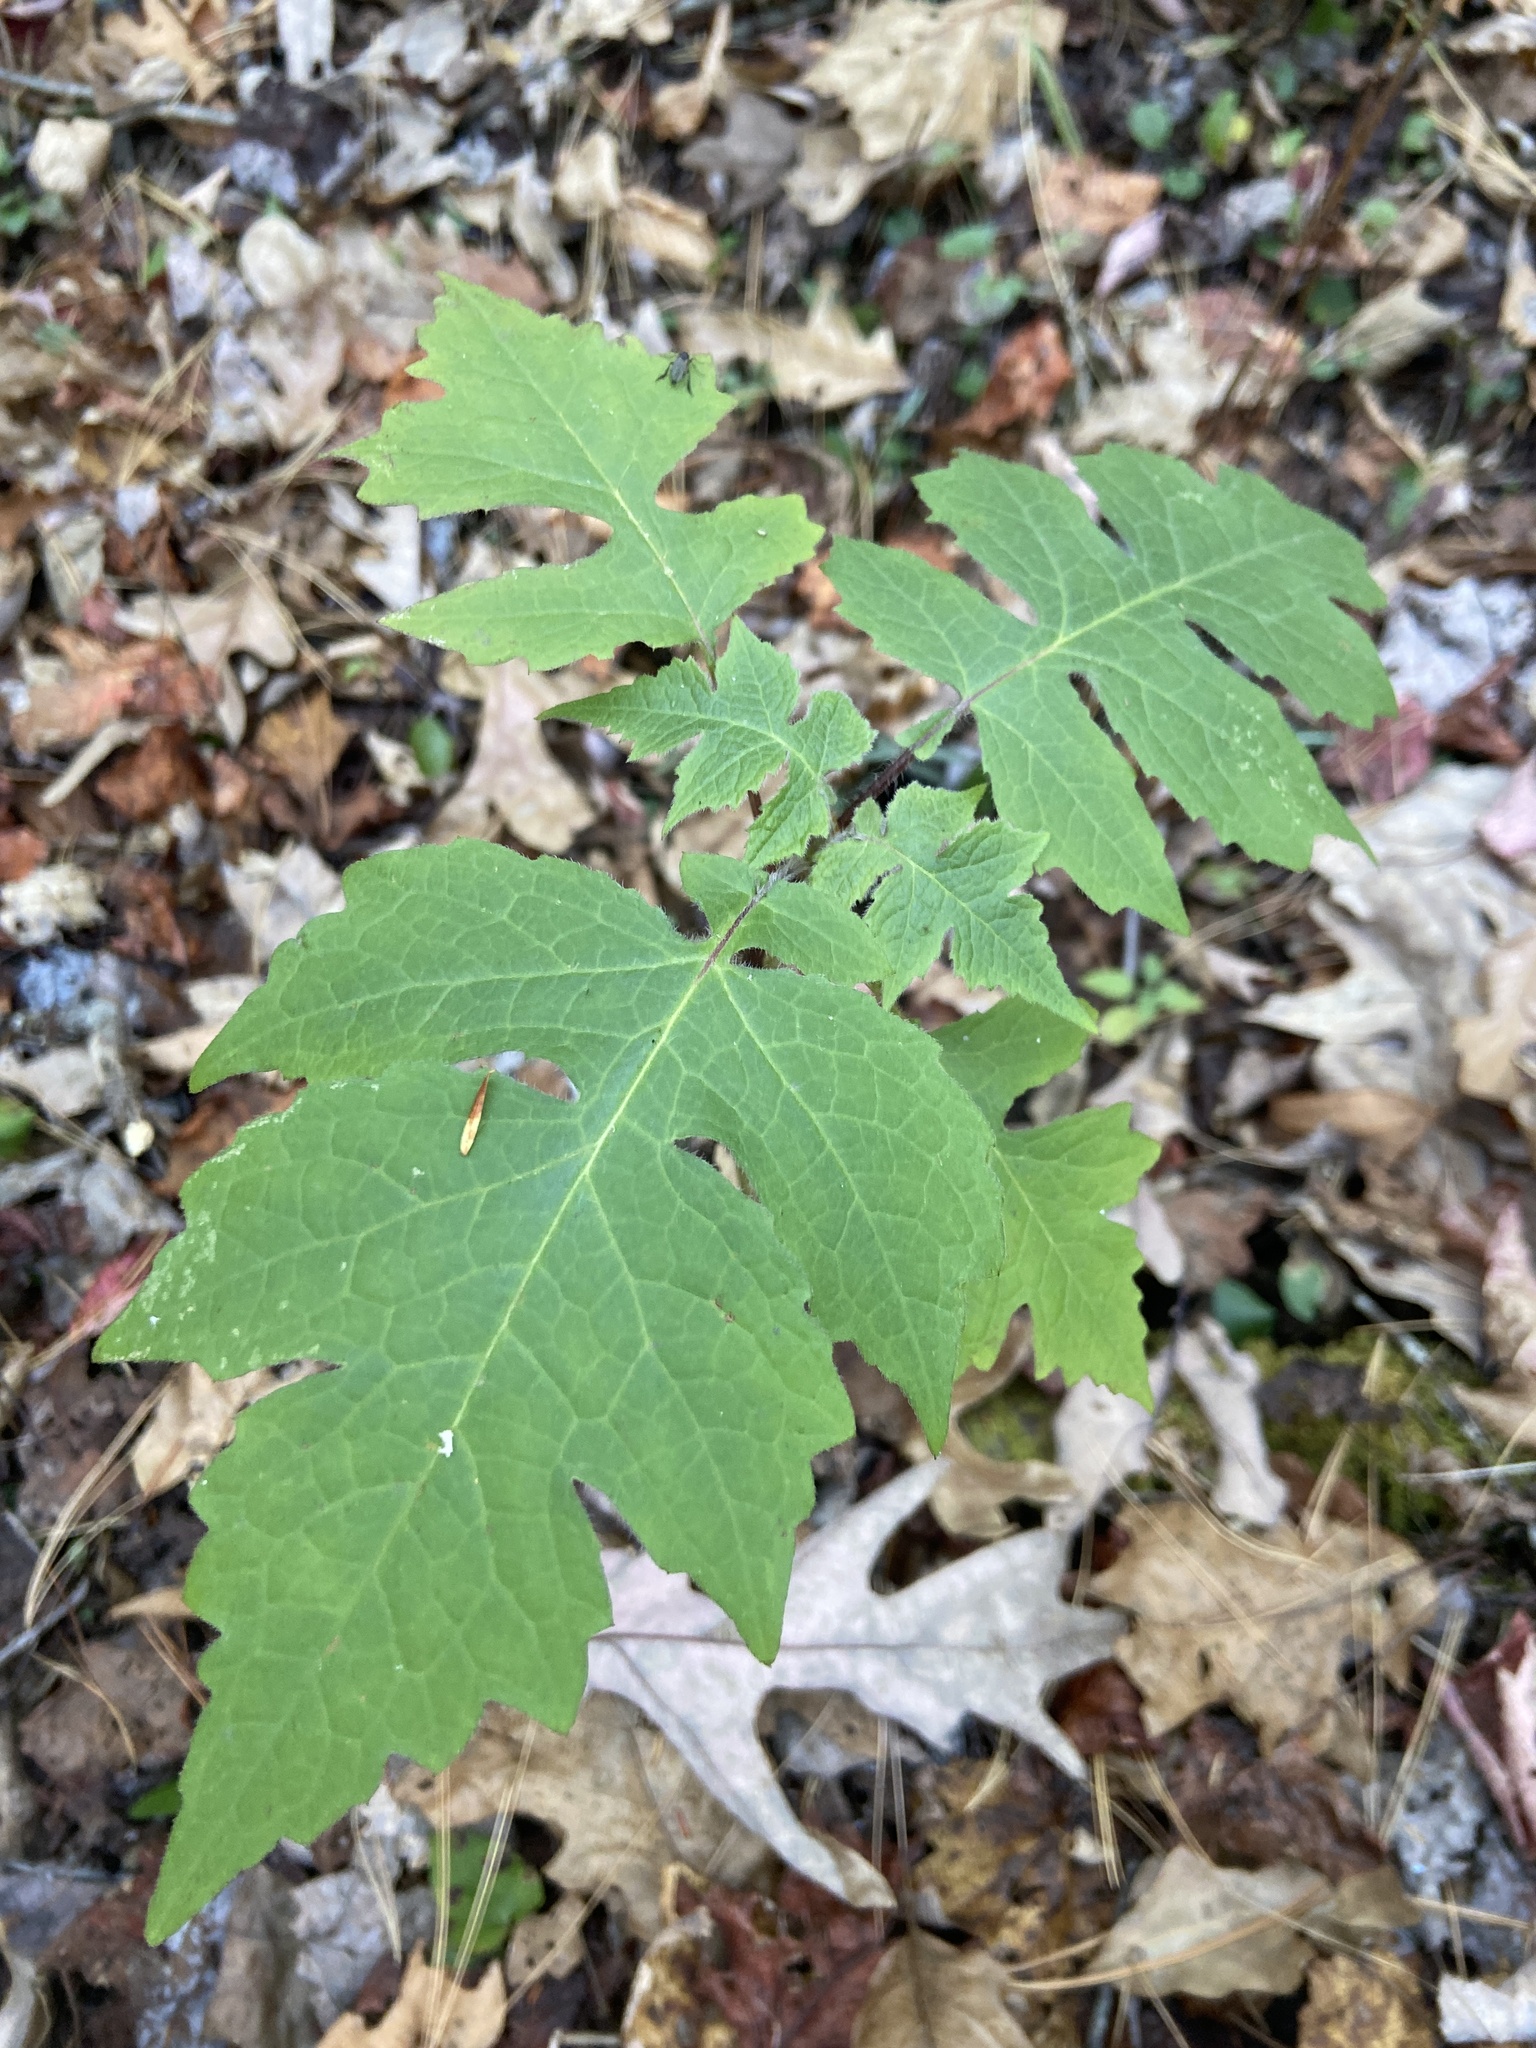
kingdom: Plantae
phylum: Tracheophyta
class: Magnoliopsida
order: Asterales
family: Asteraceae
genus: Polymnia
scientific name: Polymnia canadensis
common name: Pale-flowered leafcup
